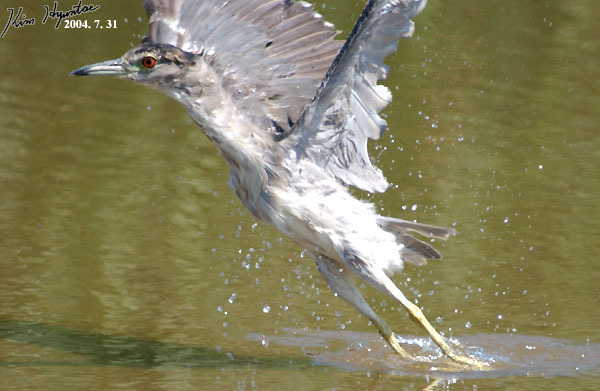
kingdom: Animalia
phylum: Chordata
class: Aves
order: Pelecaniformes
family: Ardeidae
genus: Nycticorax
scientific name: Nycticorax nycticorax
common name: Black-crowned night heron
